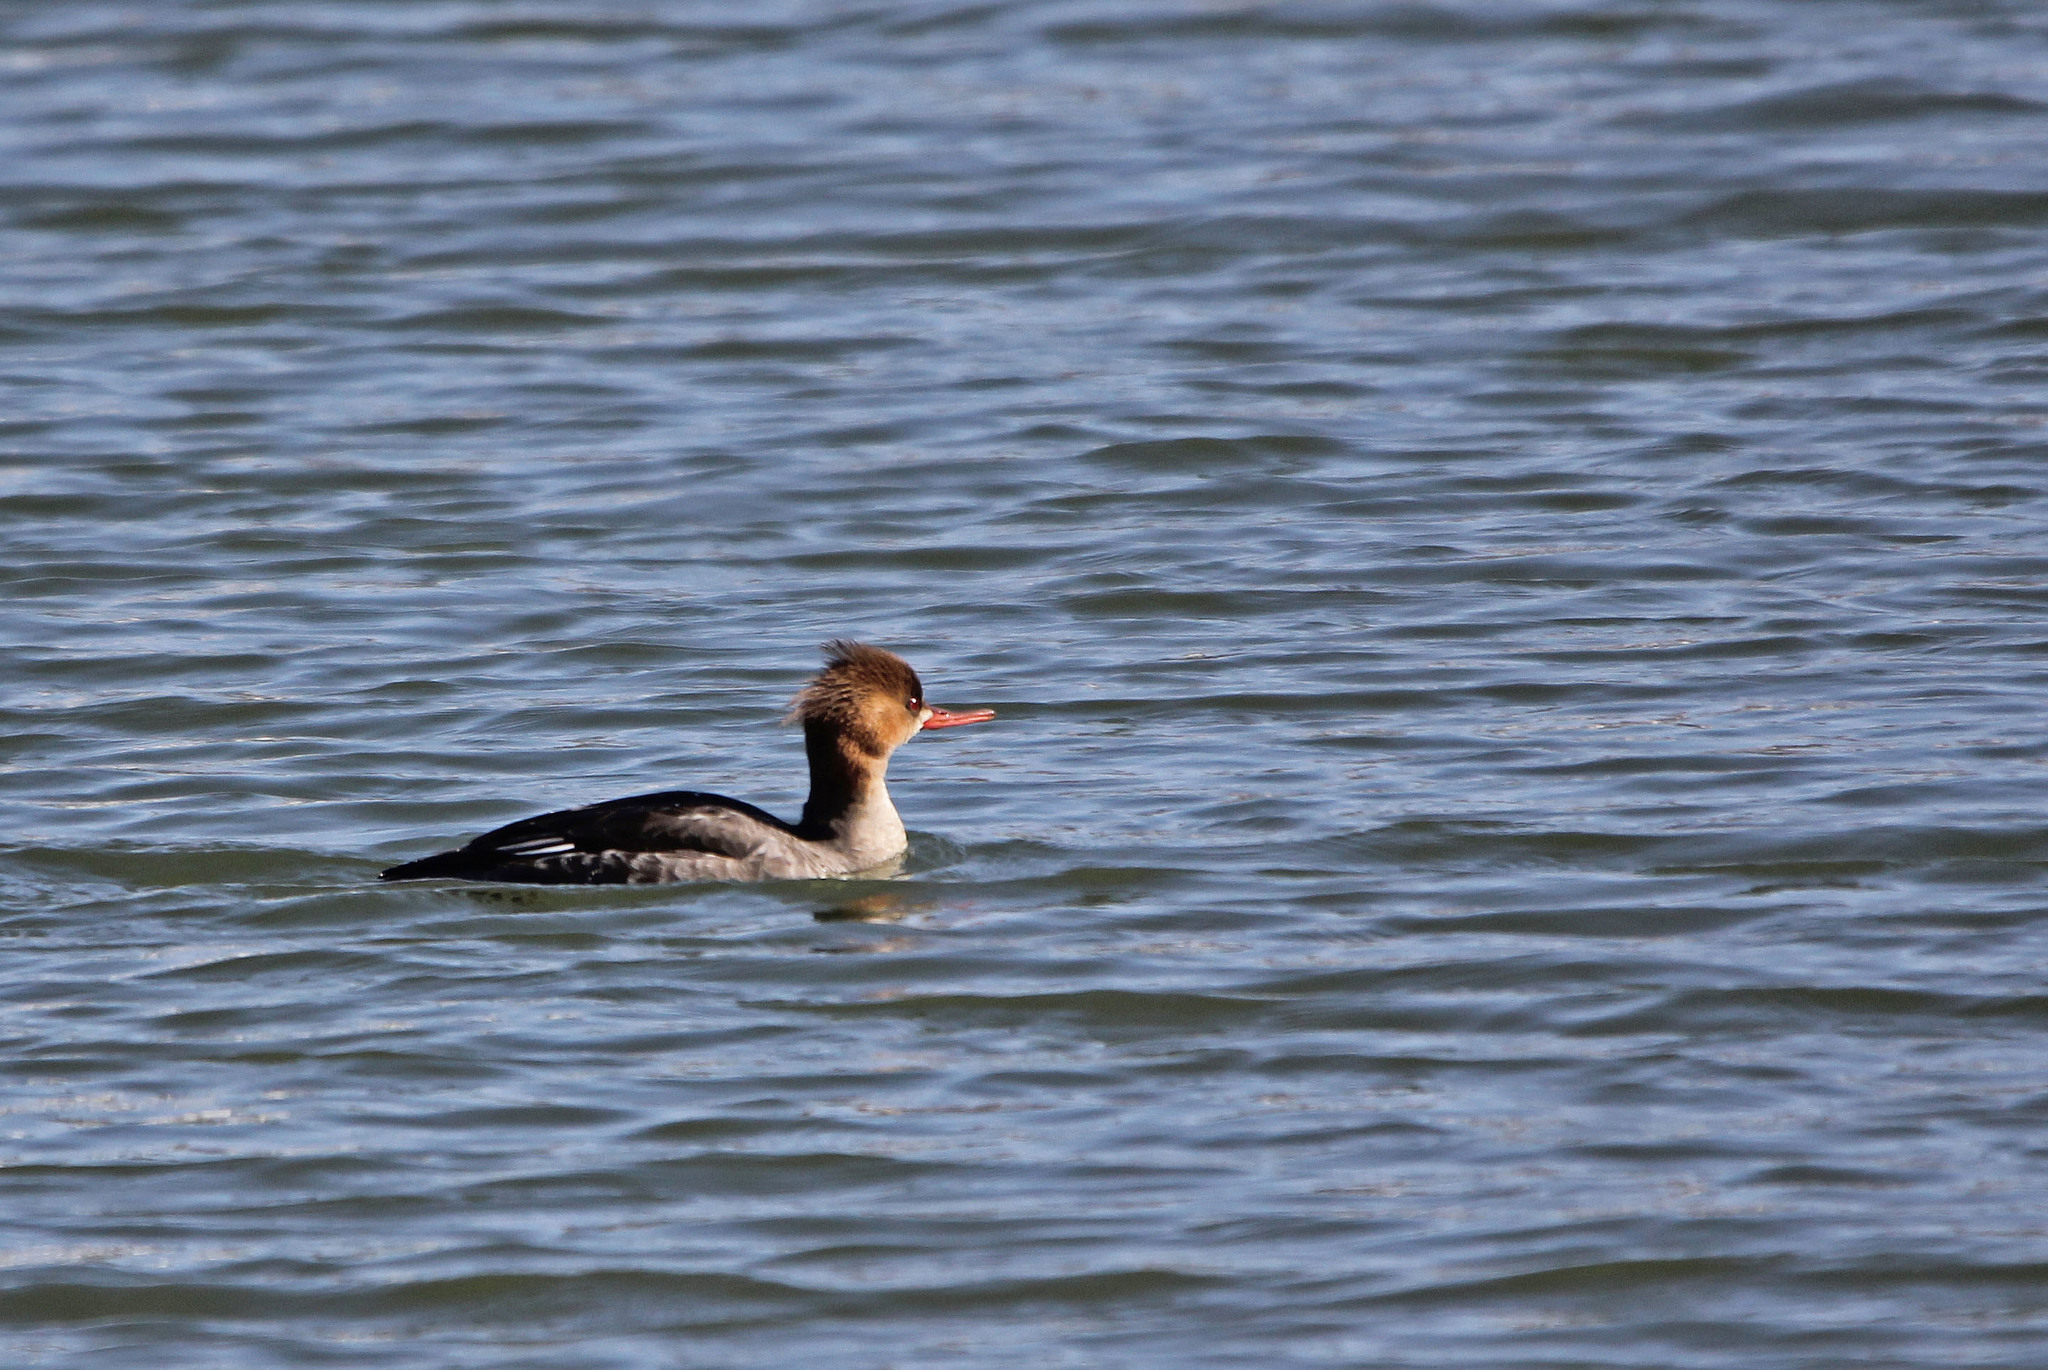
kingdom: Animalia
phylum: Chordata
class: Aves
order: Anseriformes
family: Anatidae
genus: Mergus
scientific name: Mergus serrator
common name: Red-breasted merganser
